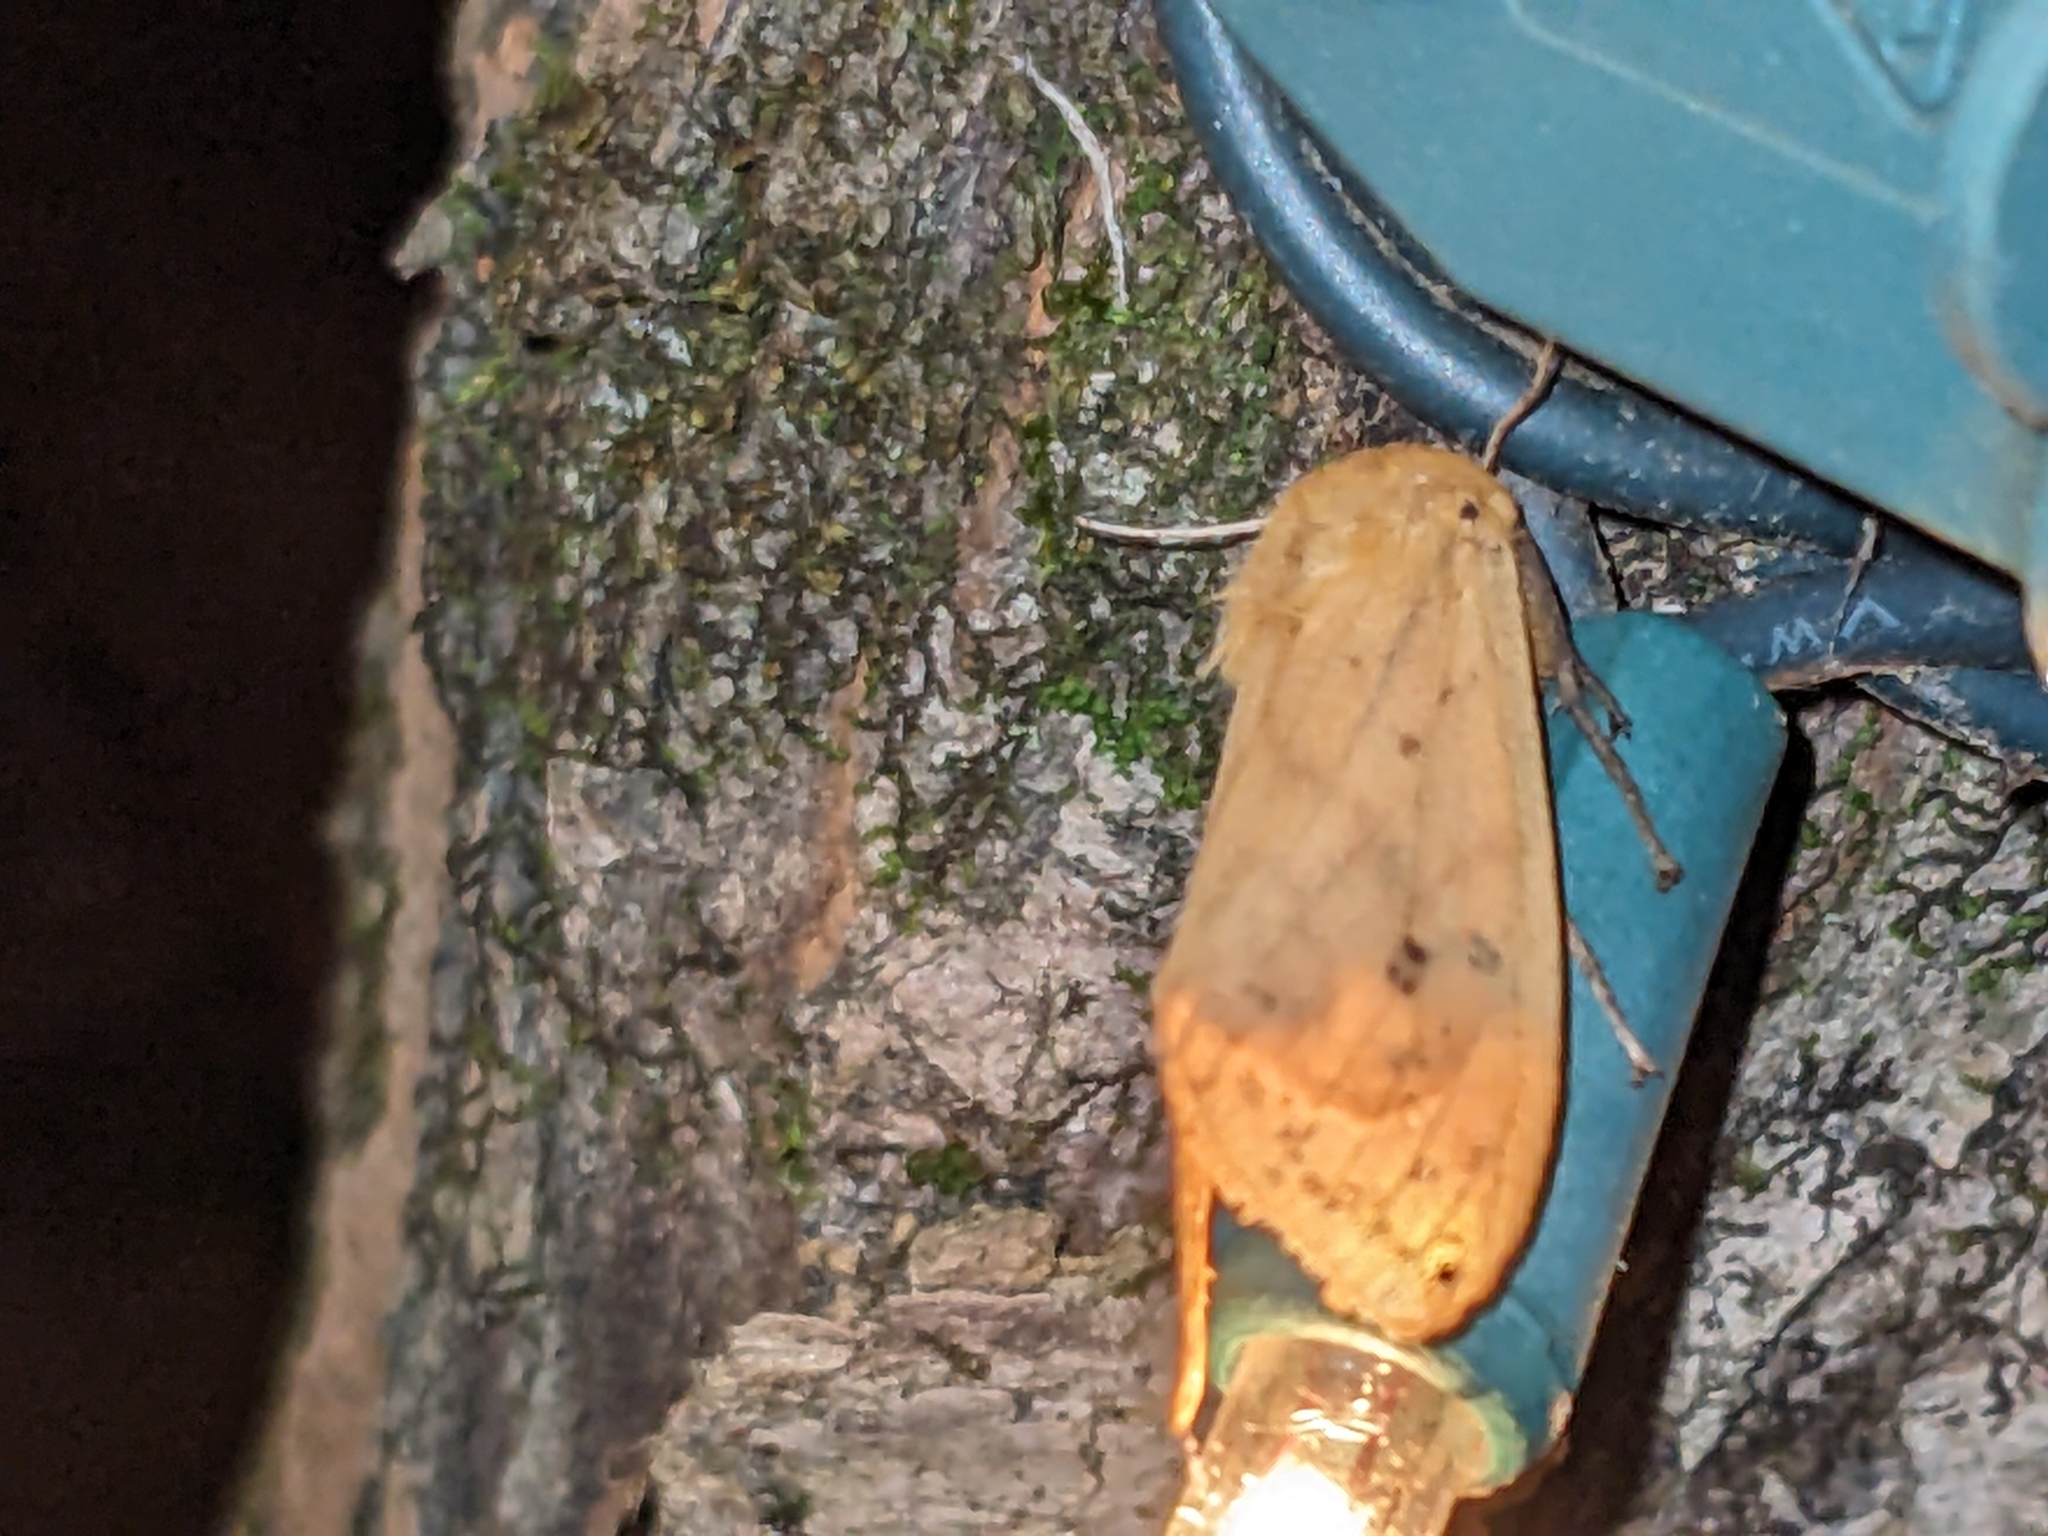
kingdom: Animalia
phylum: Arthropoda
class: Insecta
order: Lepidoptera
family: Erebidae
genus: Pyrrharctia
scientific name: Pyrrharctia isabella
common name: Isabella tiger moth
